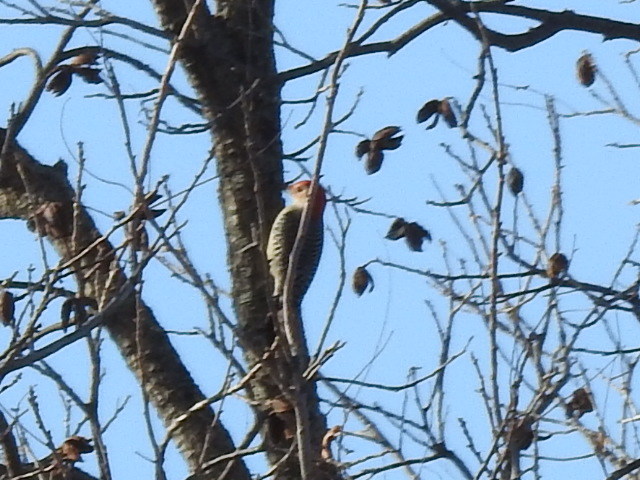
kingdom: Animalia
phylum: Chordata
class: Aves
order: Piciformes
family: Picidae
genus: Melanerpes
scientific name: Melanerpes carolinus
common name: Red-bellied woodpecker
